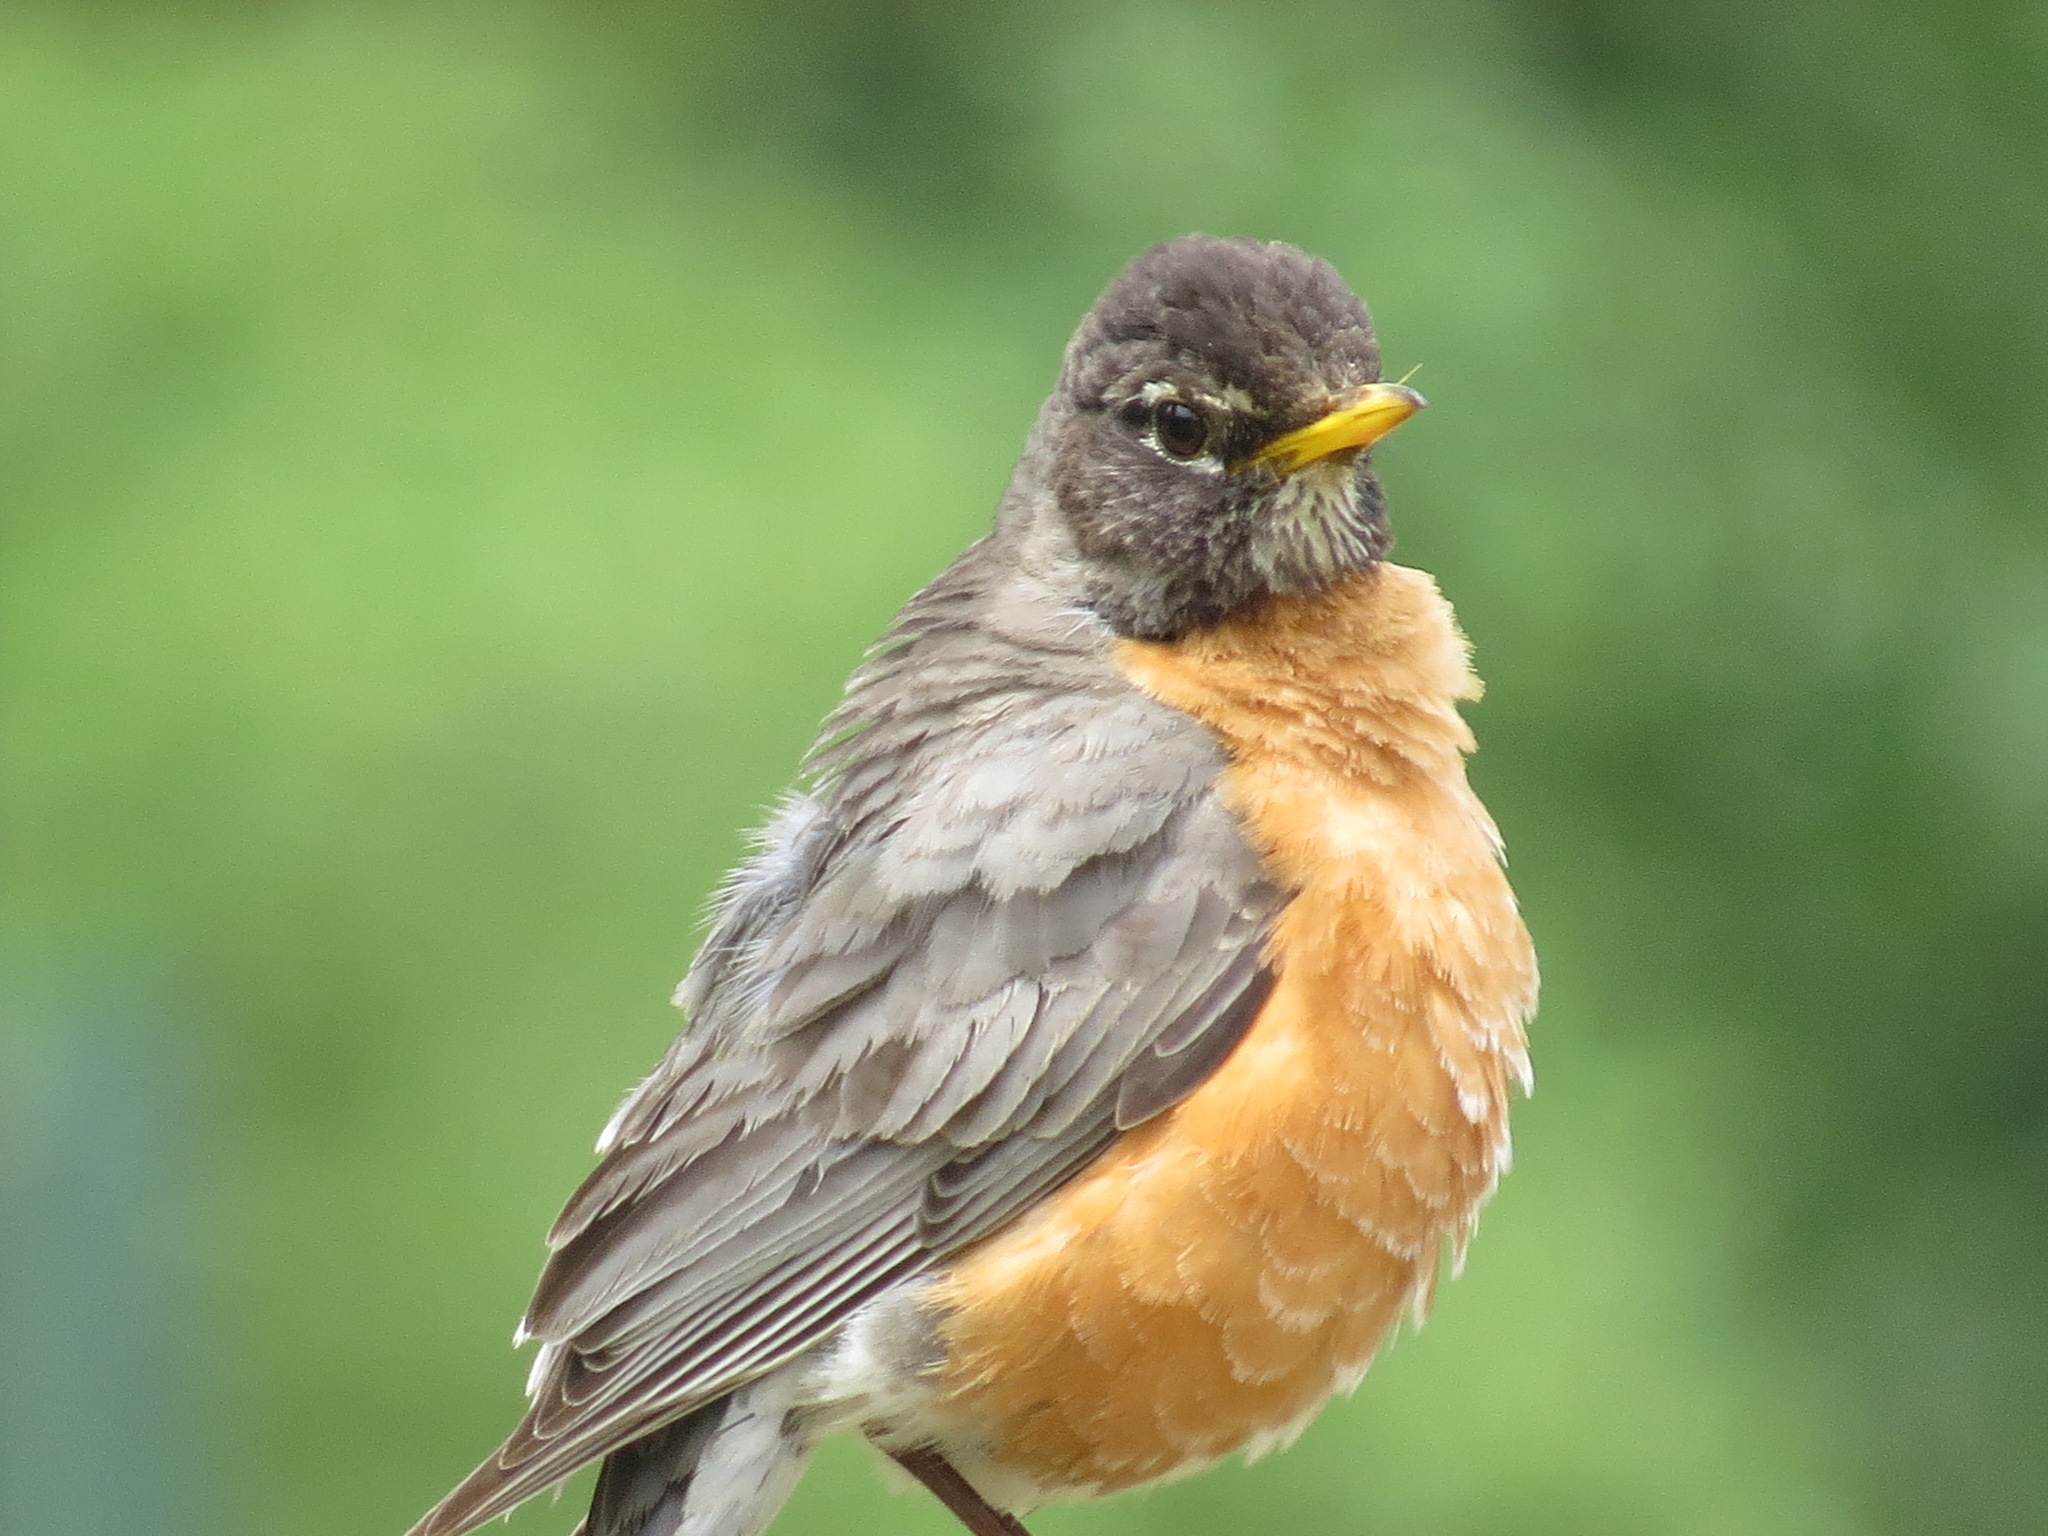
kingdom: Animalia
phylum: Chordata
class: Aves
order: Passeriformes
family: Turdidae
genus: Turdus
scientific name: Turdus migratorius
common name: American robin
